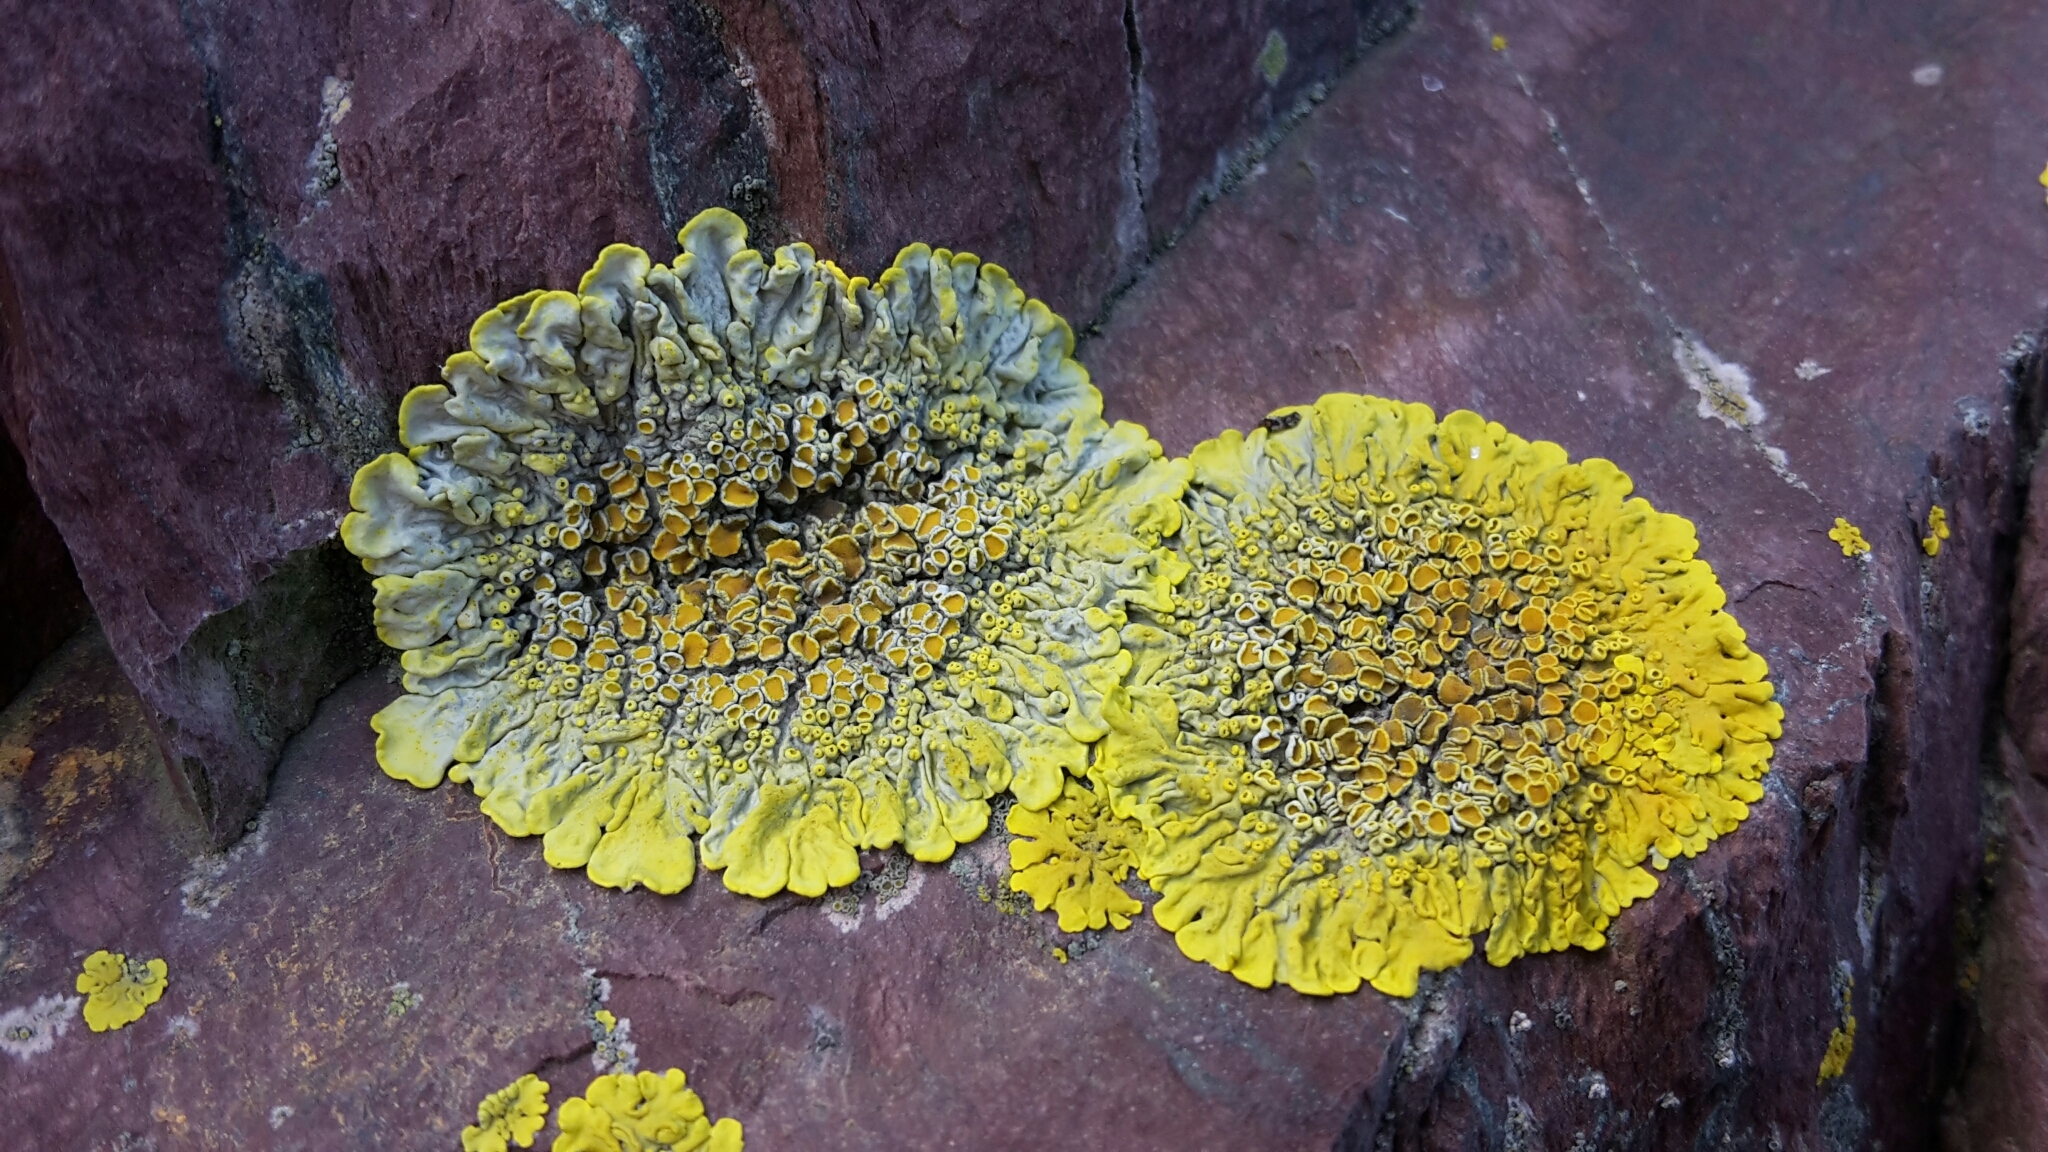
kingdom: Fungi
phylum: Ascomycota
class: Lecanoromycetes
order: Teloschistales
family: Teloschistaceae
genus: Xanthoria
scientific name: Xanthoria parietina
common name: Common orange lichen
